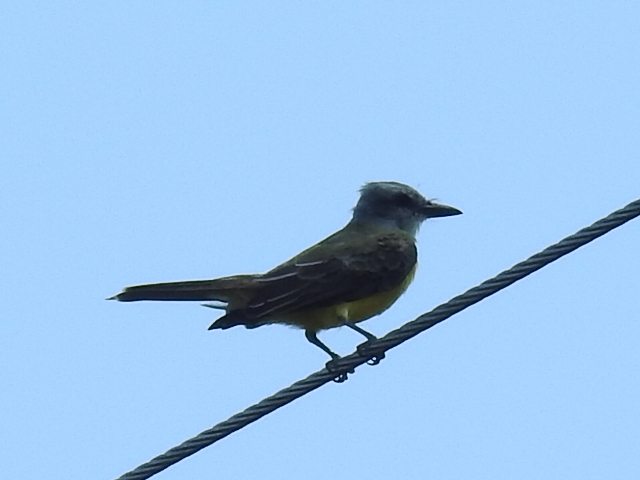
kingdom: Animalia
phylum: Chordata
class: Aves
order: Passeriformes
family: Tyrannidae
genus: Tyrannus
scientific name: Tyrannus
